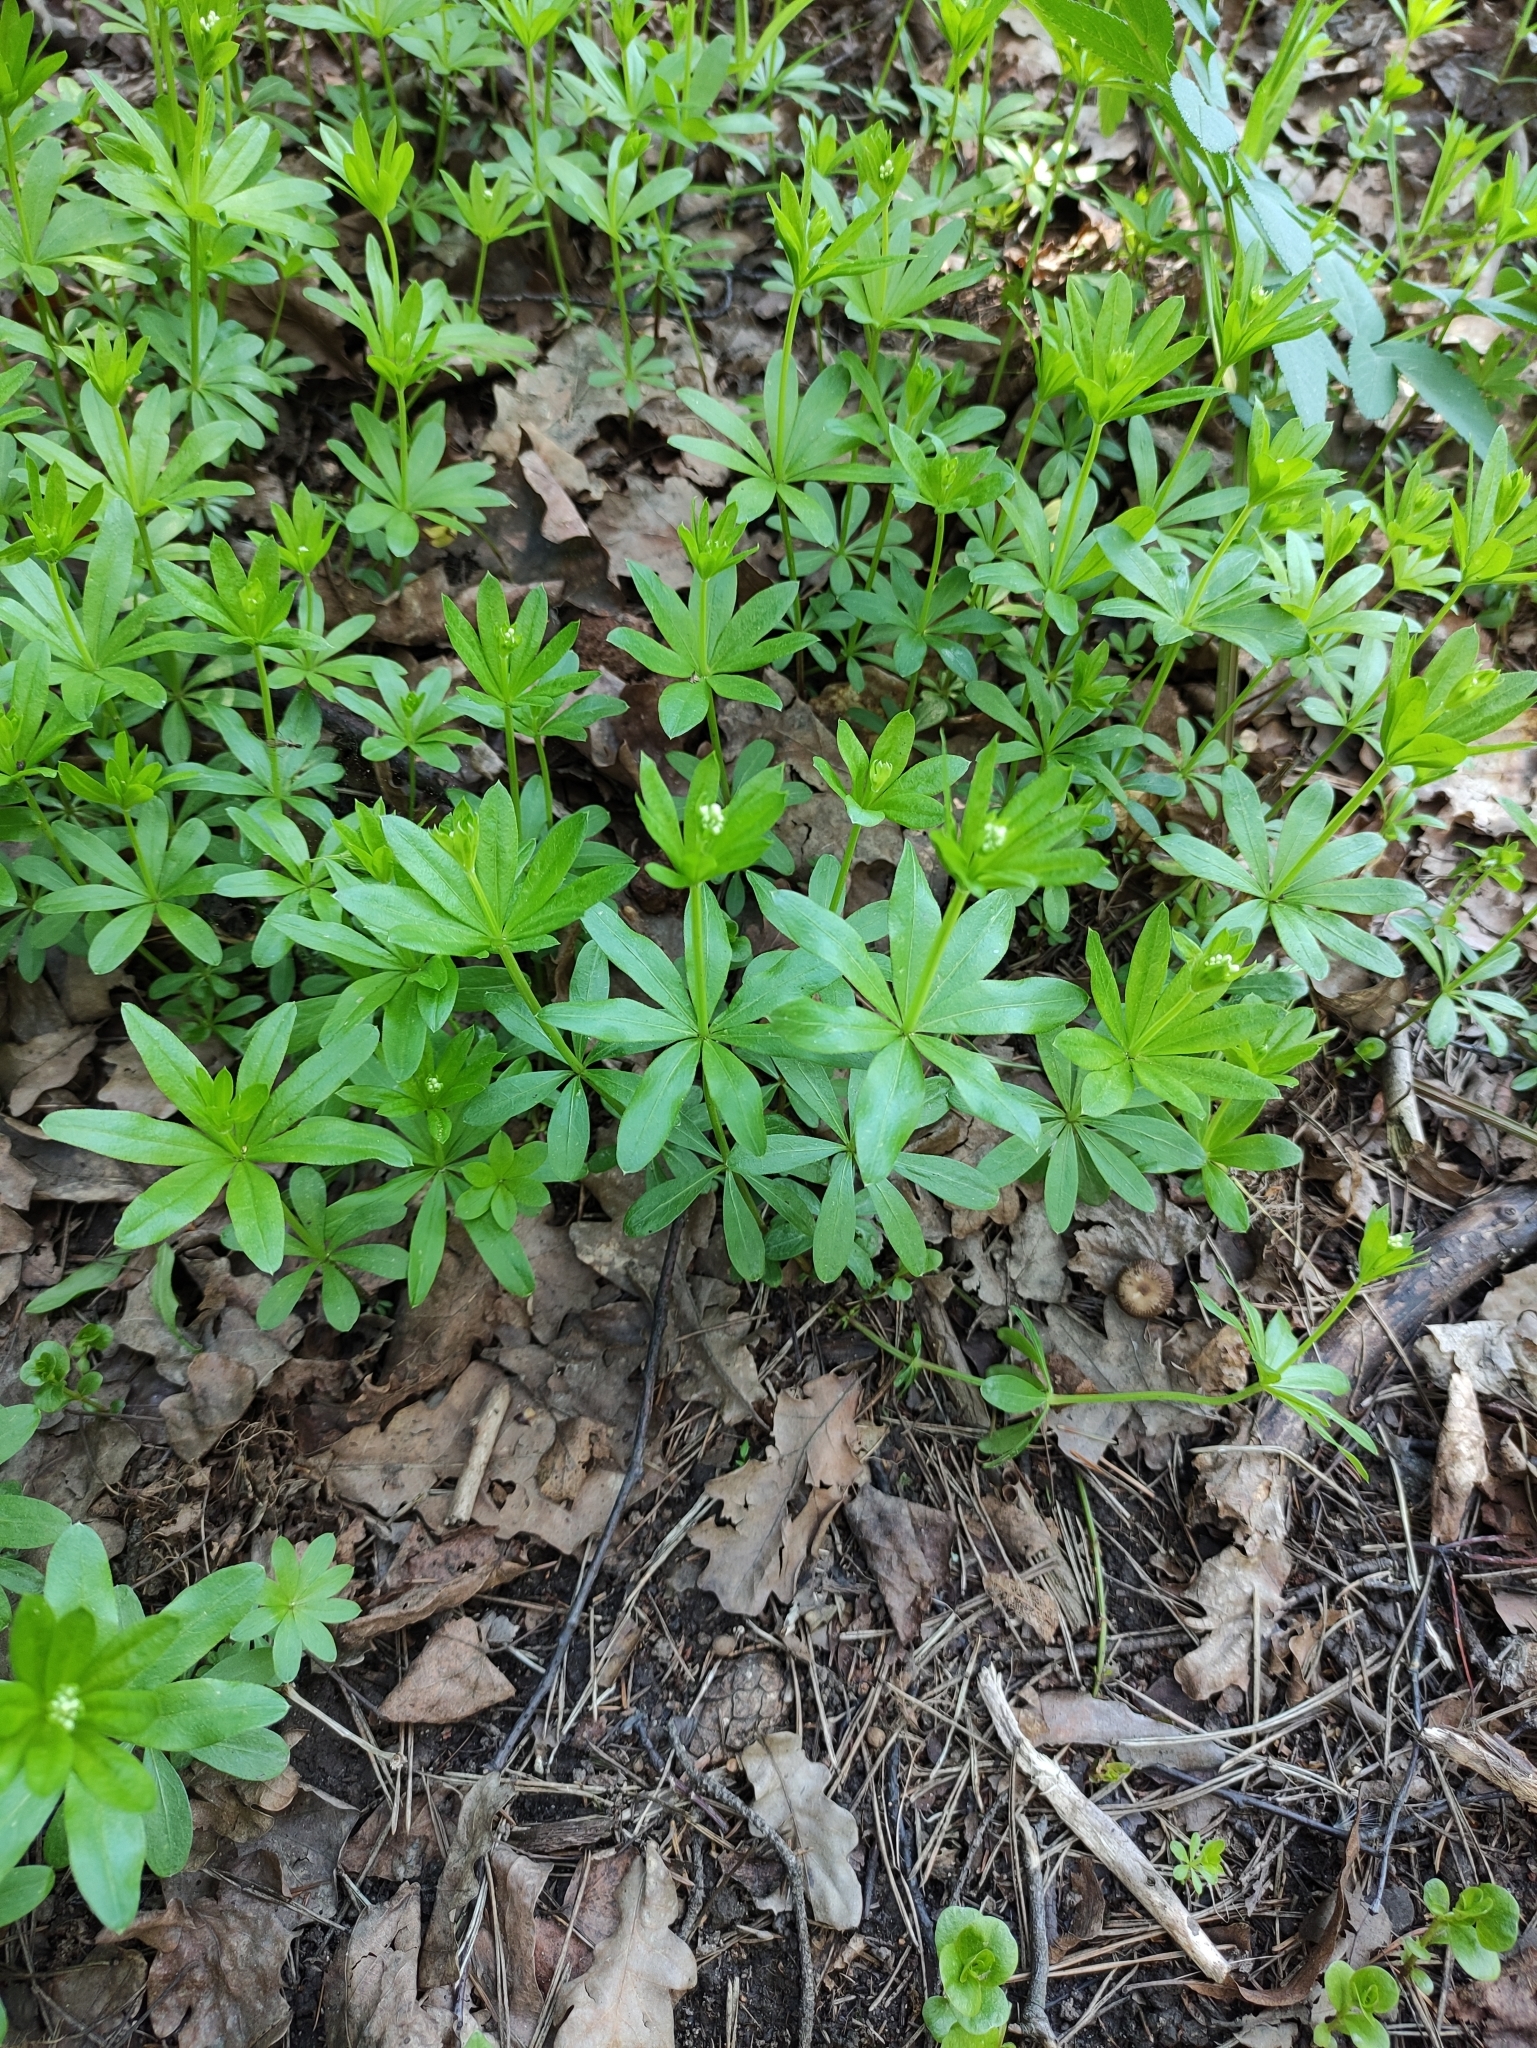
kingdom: Plantae
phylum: Tracheophyta
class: Magnoliopsida
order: Gentianales
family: Rubiaceae
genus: Galium
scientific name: Galium odoratum
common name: Sweet woodruff
